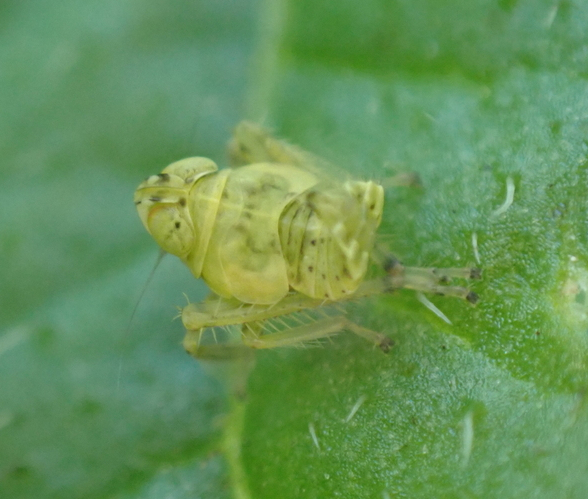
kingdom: Animalia
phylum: Arthropoda
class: Insecta
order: Hemiptera
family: Cicadellidae
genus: Jikradia
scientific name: Jikradia olitoria
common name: Coppery leafhopper
